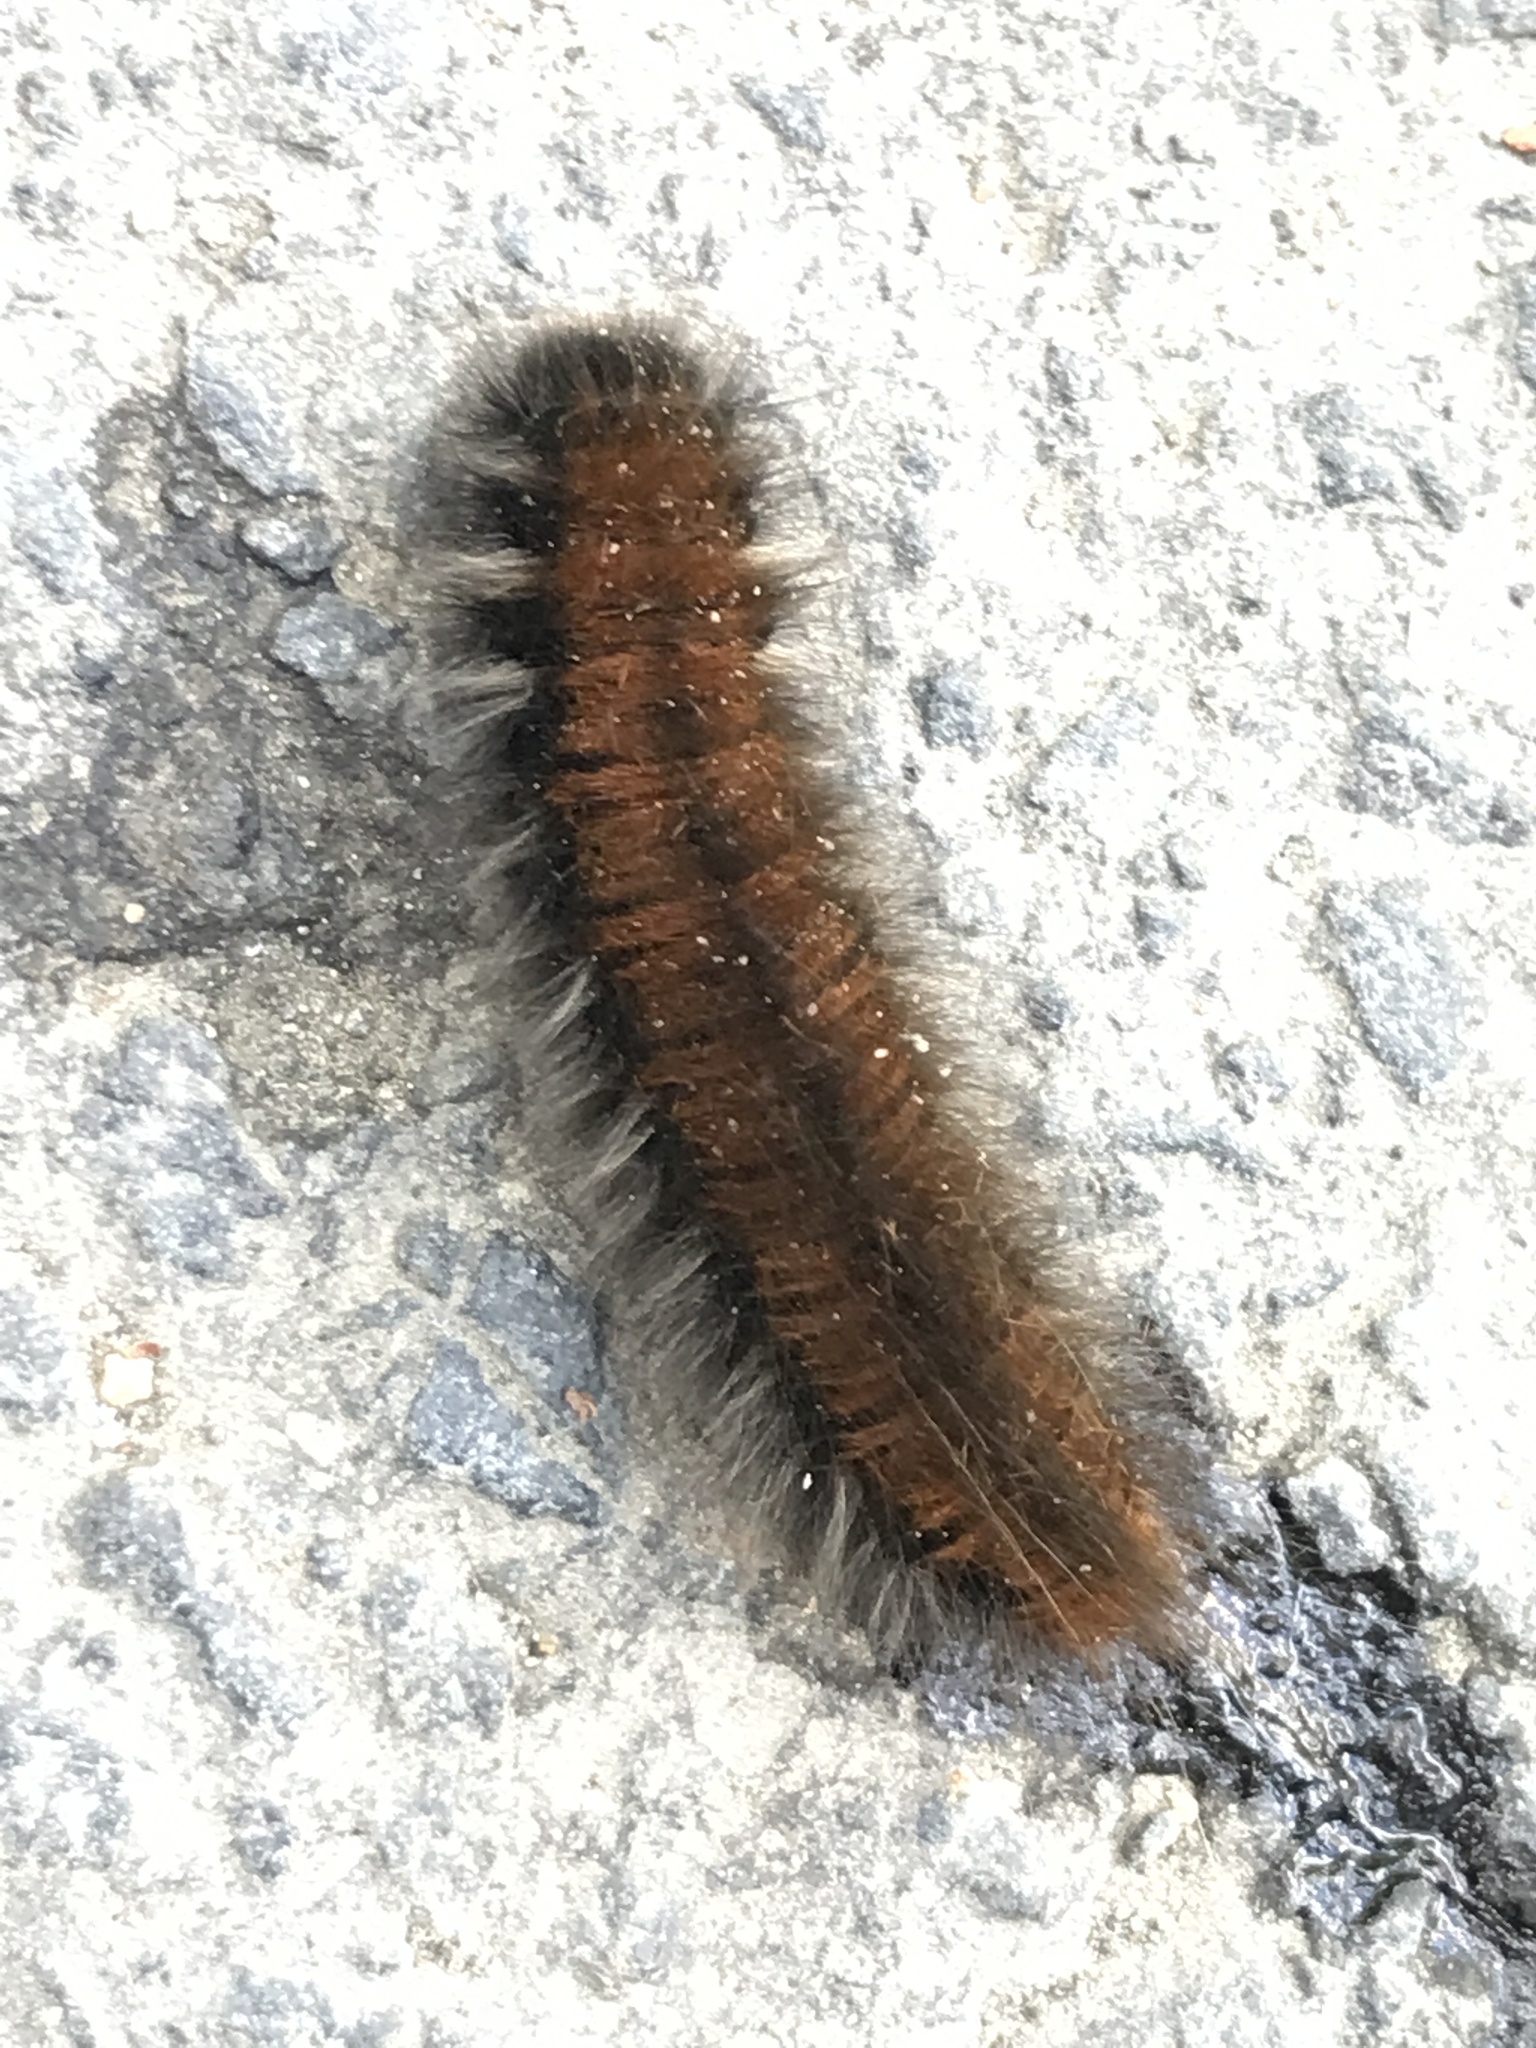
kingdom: Animalia
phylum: Arthropoda
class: Insecta
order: Lepidoptera
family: Lasiocampidae
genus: Macrothylacia
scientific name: Macrothylacia rubi
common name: Fox moth
